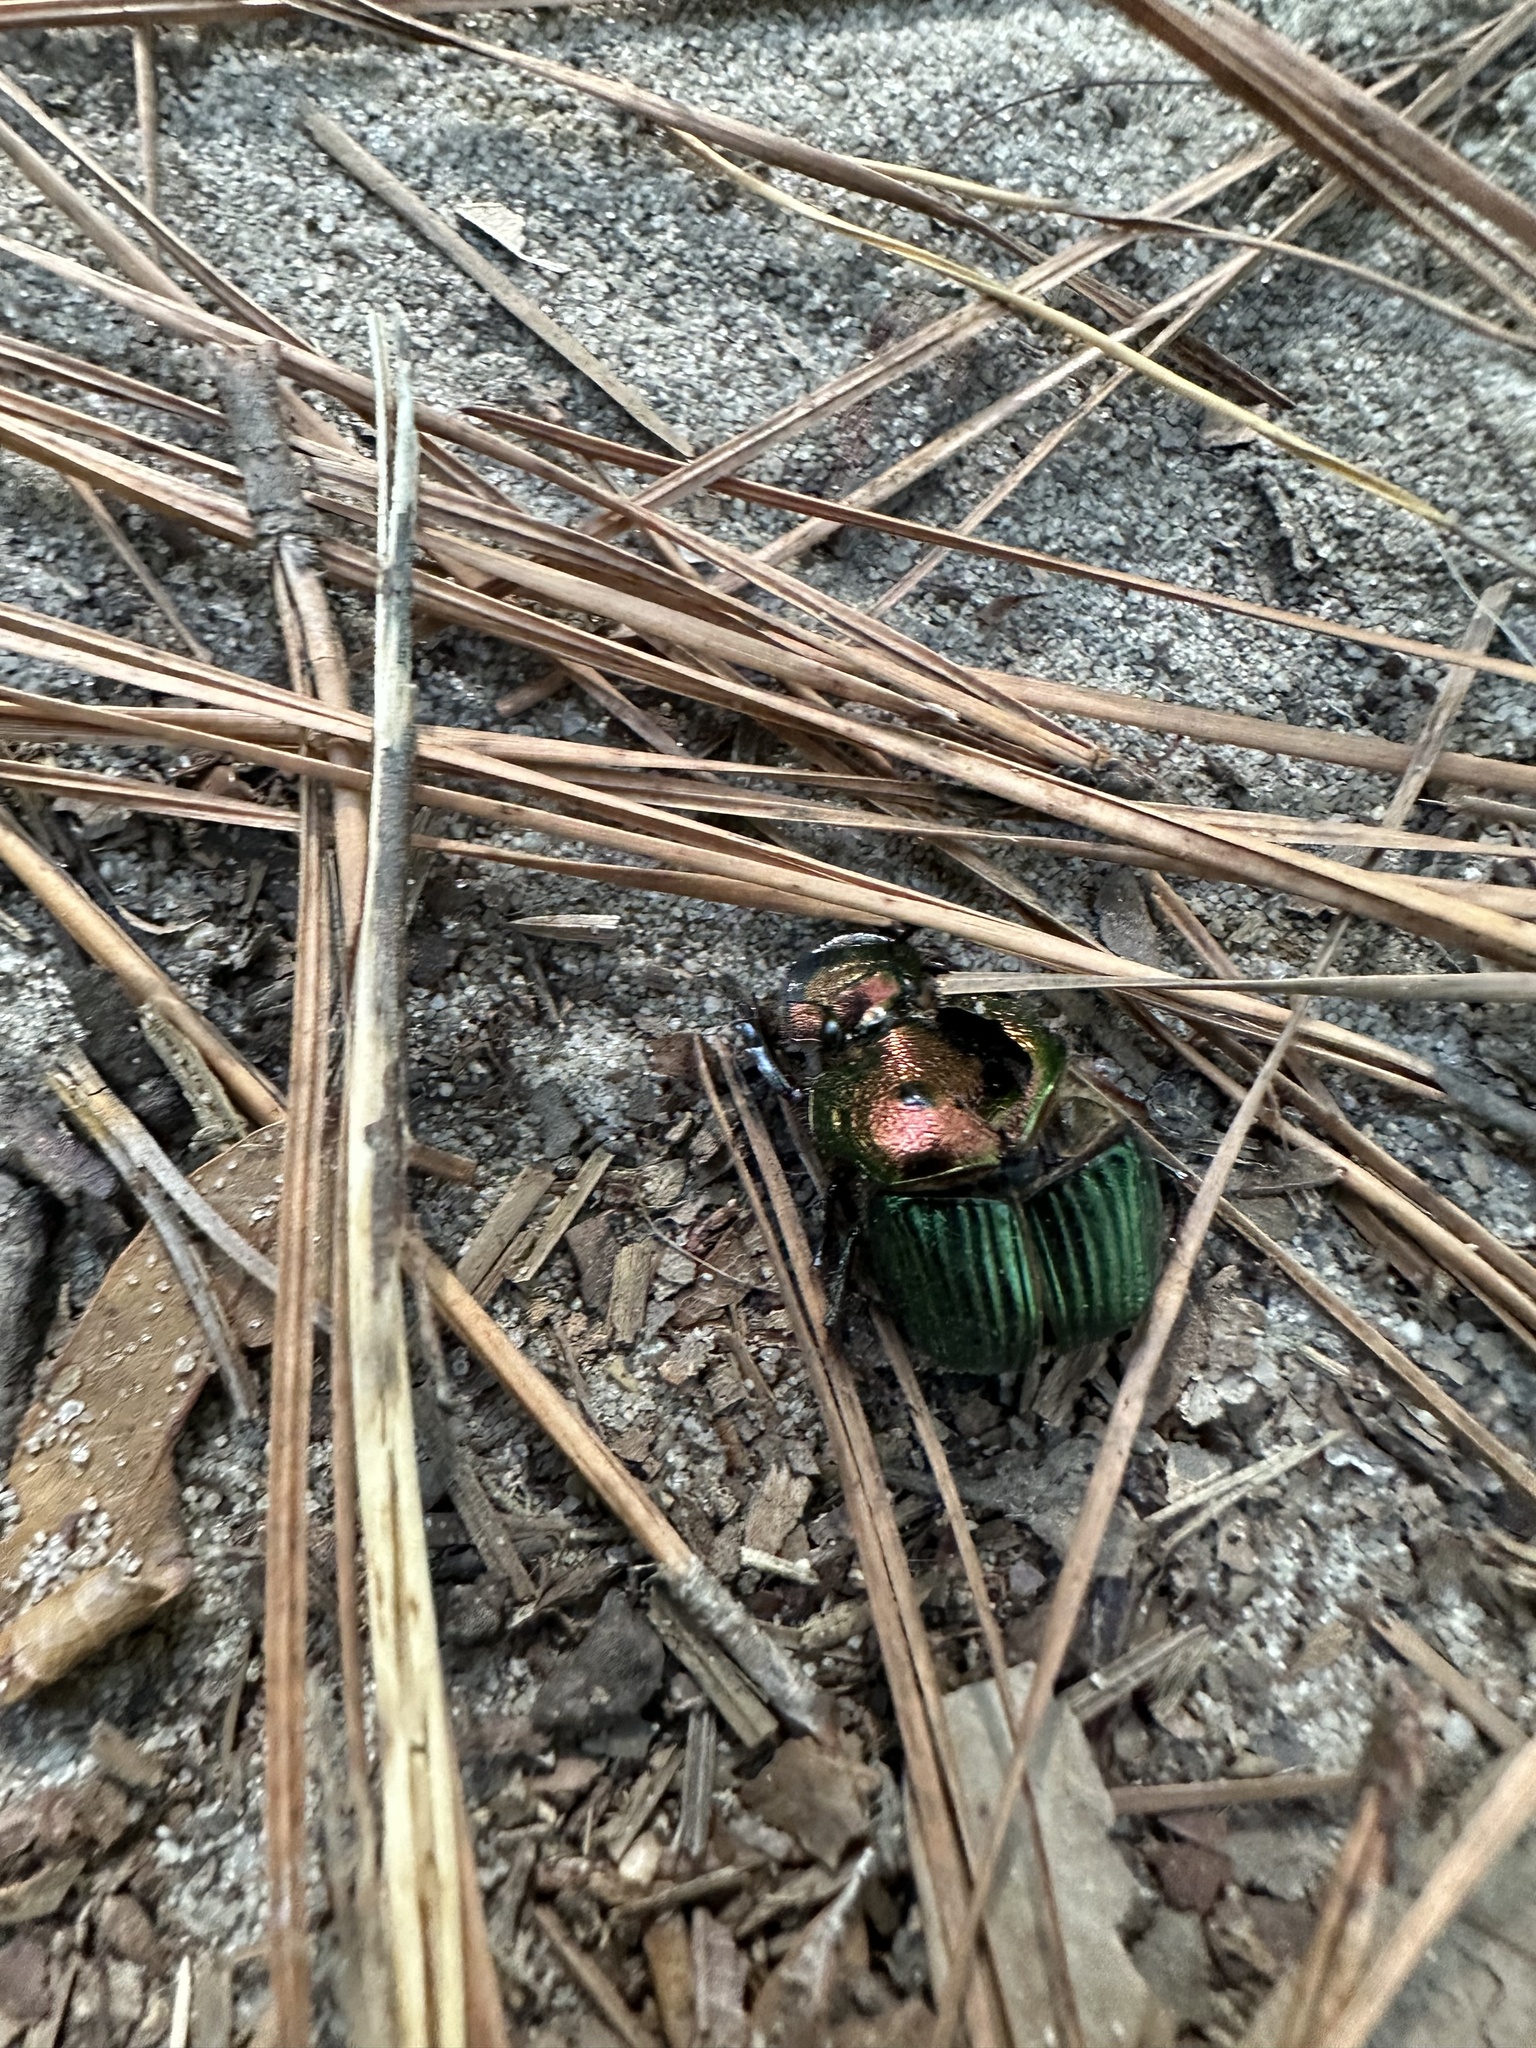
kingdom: Animalia
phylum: Arthropoda
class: Insecta
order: Coleoptera
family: Scarabaeidae
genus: Phanaeus
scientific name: Phanaeus igneus
